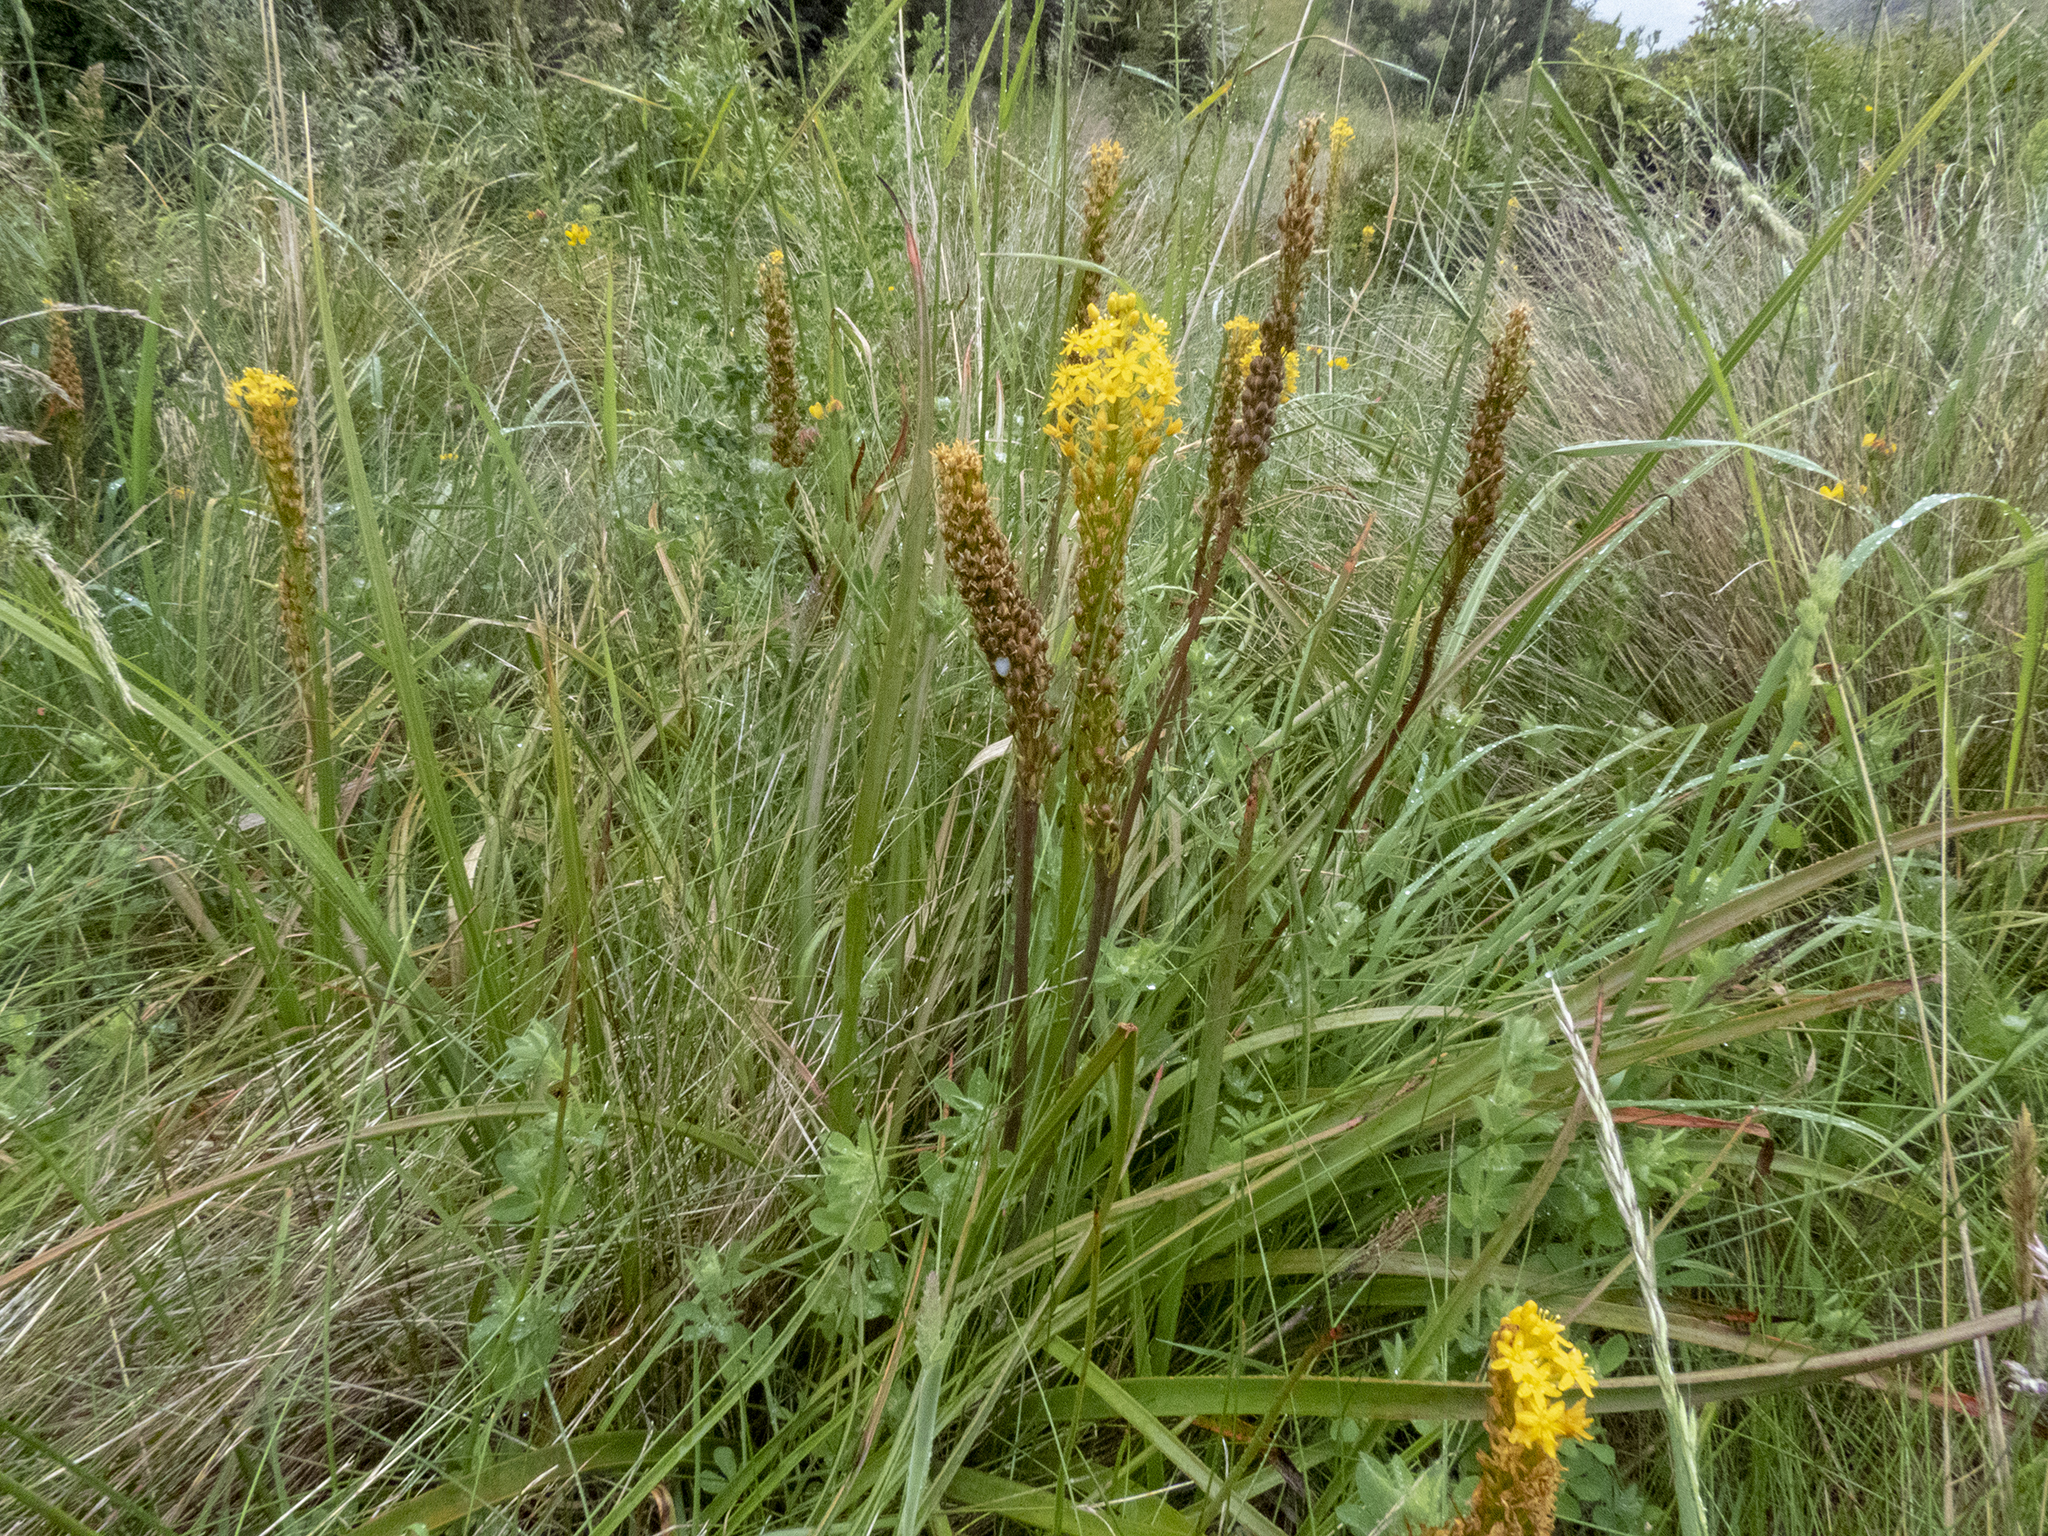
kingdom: Plantae
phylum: Tracheophyta
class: Liliopsida
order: Asparagales
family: Asphodelaceae
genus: Bulbinella
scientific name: Bulbinella angustifolia
